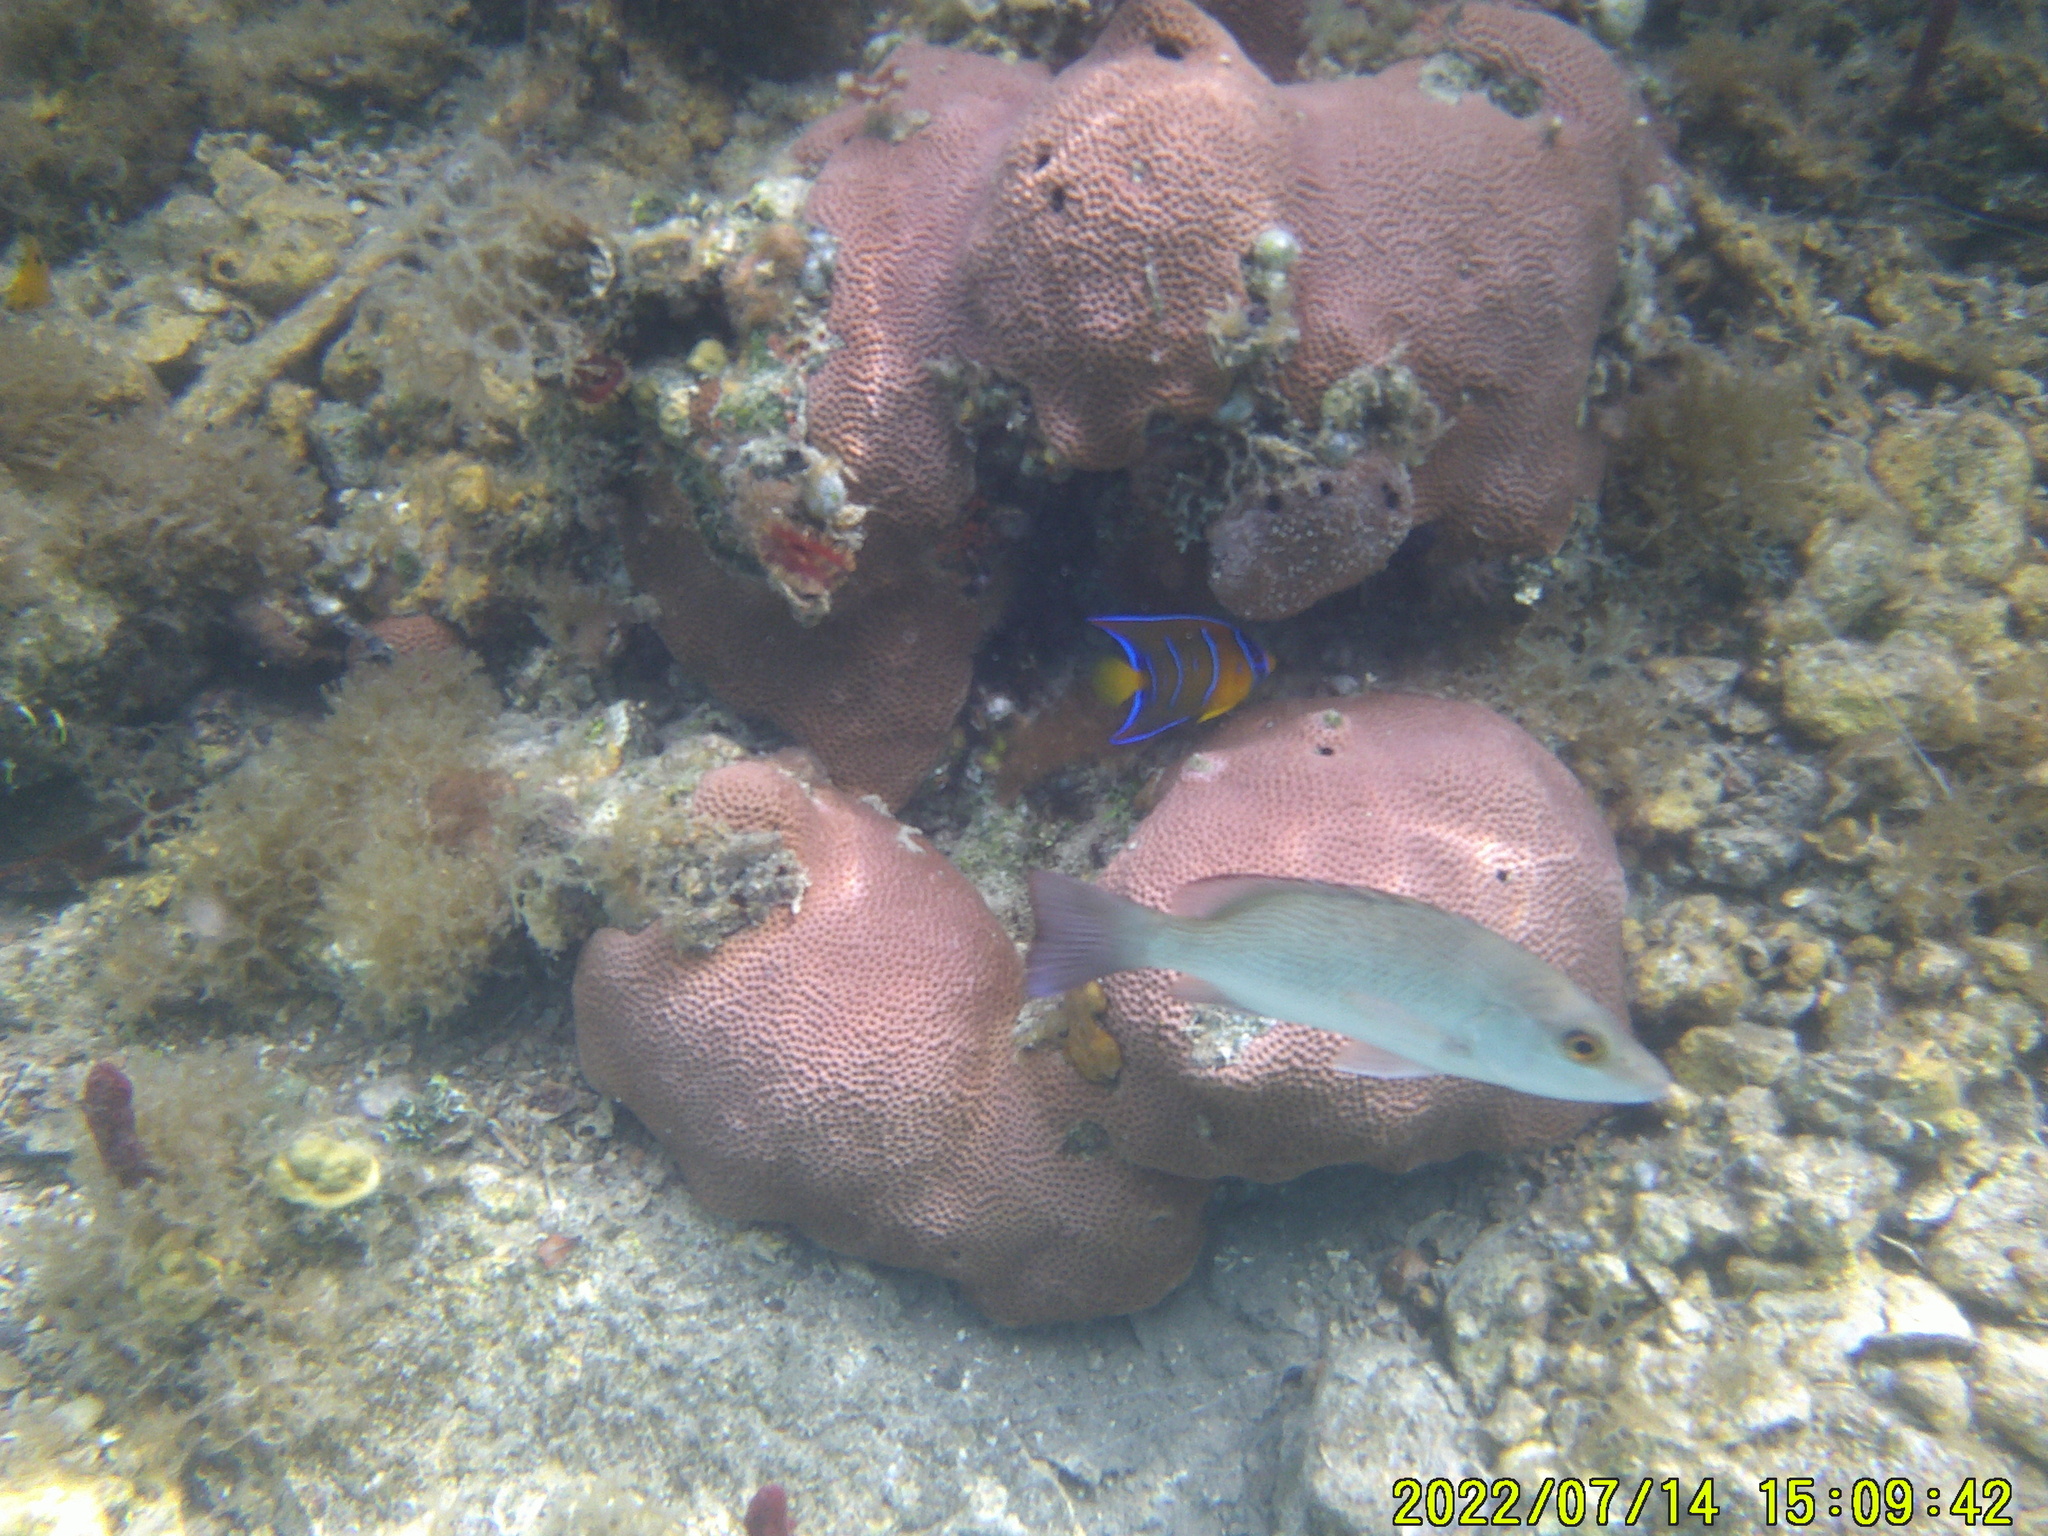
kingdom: Animalia
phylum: Chordata
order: Perciformes
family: Pomacanthidae
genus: Holacanthus
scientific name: Holacanthus ciliaris
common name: Queen angelfish
